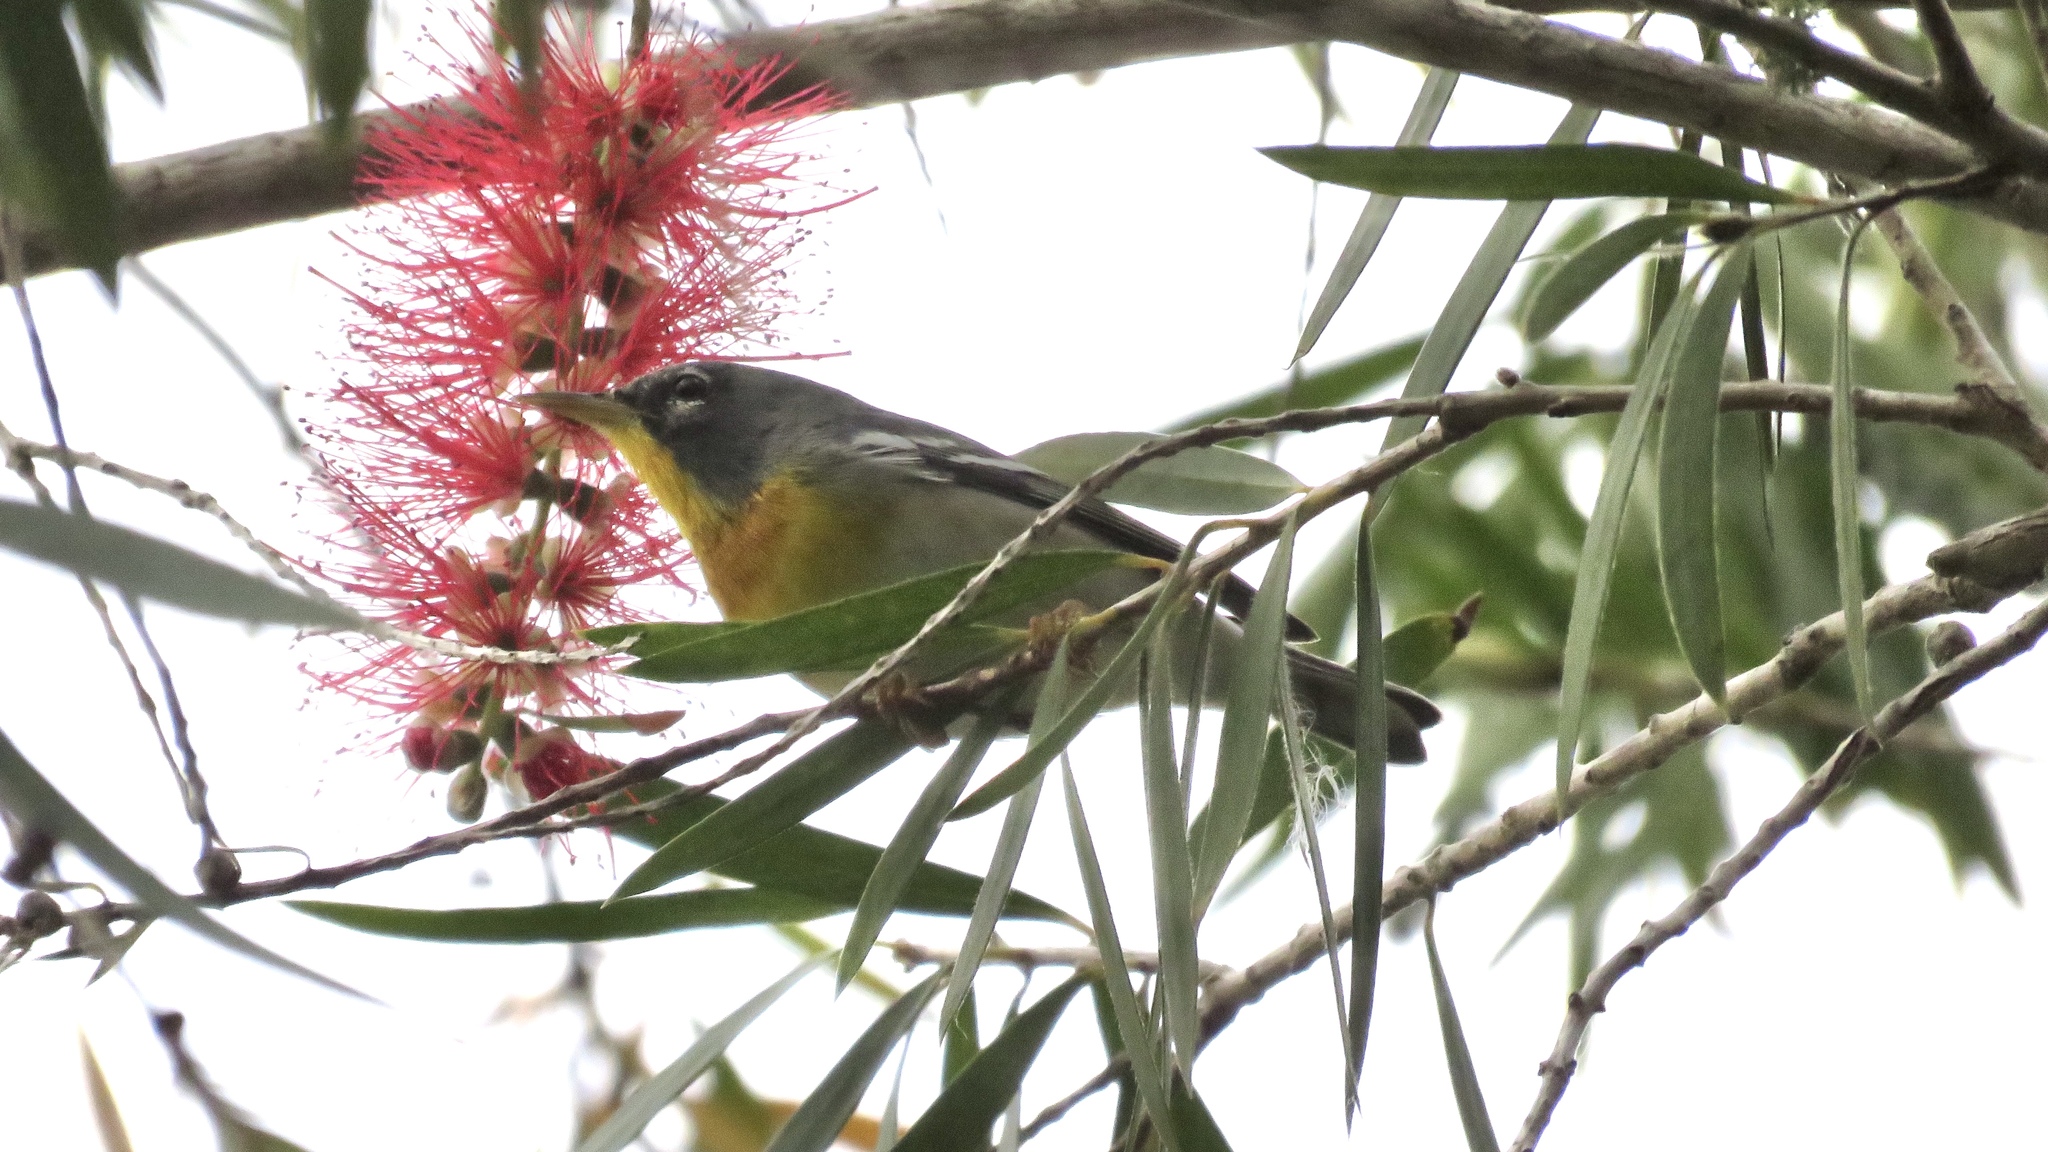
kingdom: Animalia
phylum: Chordata
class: Aves
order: Passeriformes
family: Parulidae
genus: Setophaga
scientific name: Setophaga americana
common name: Northern parula
